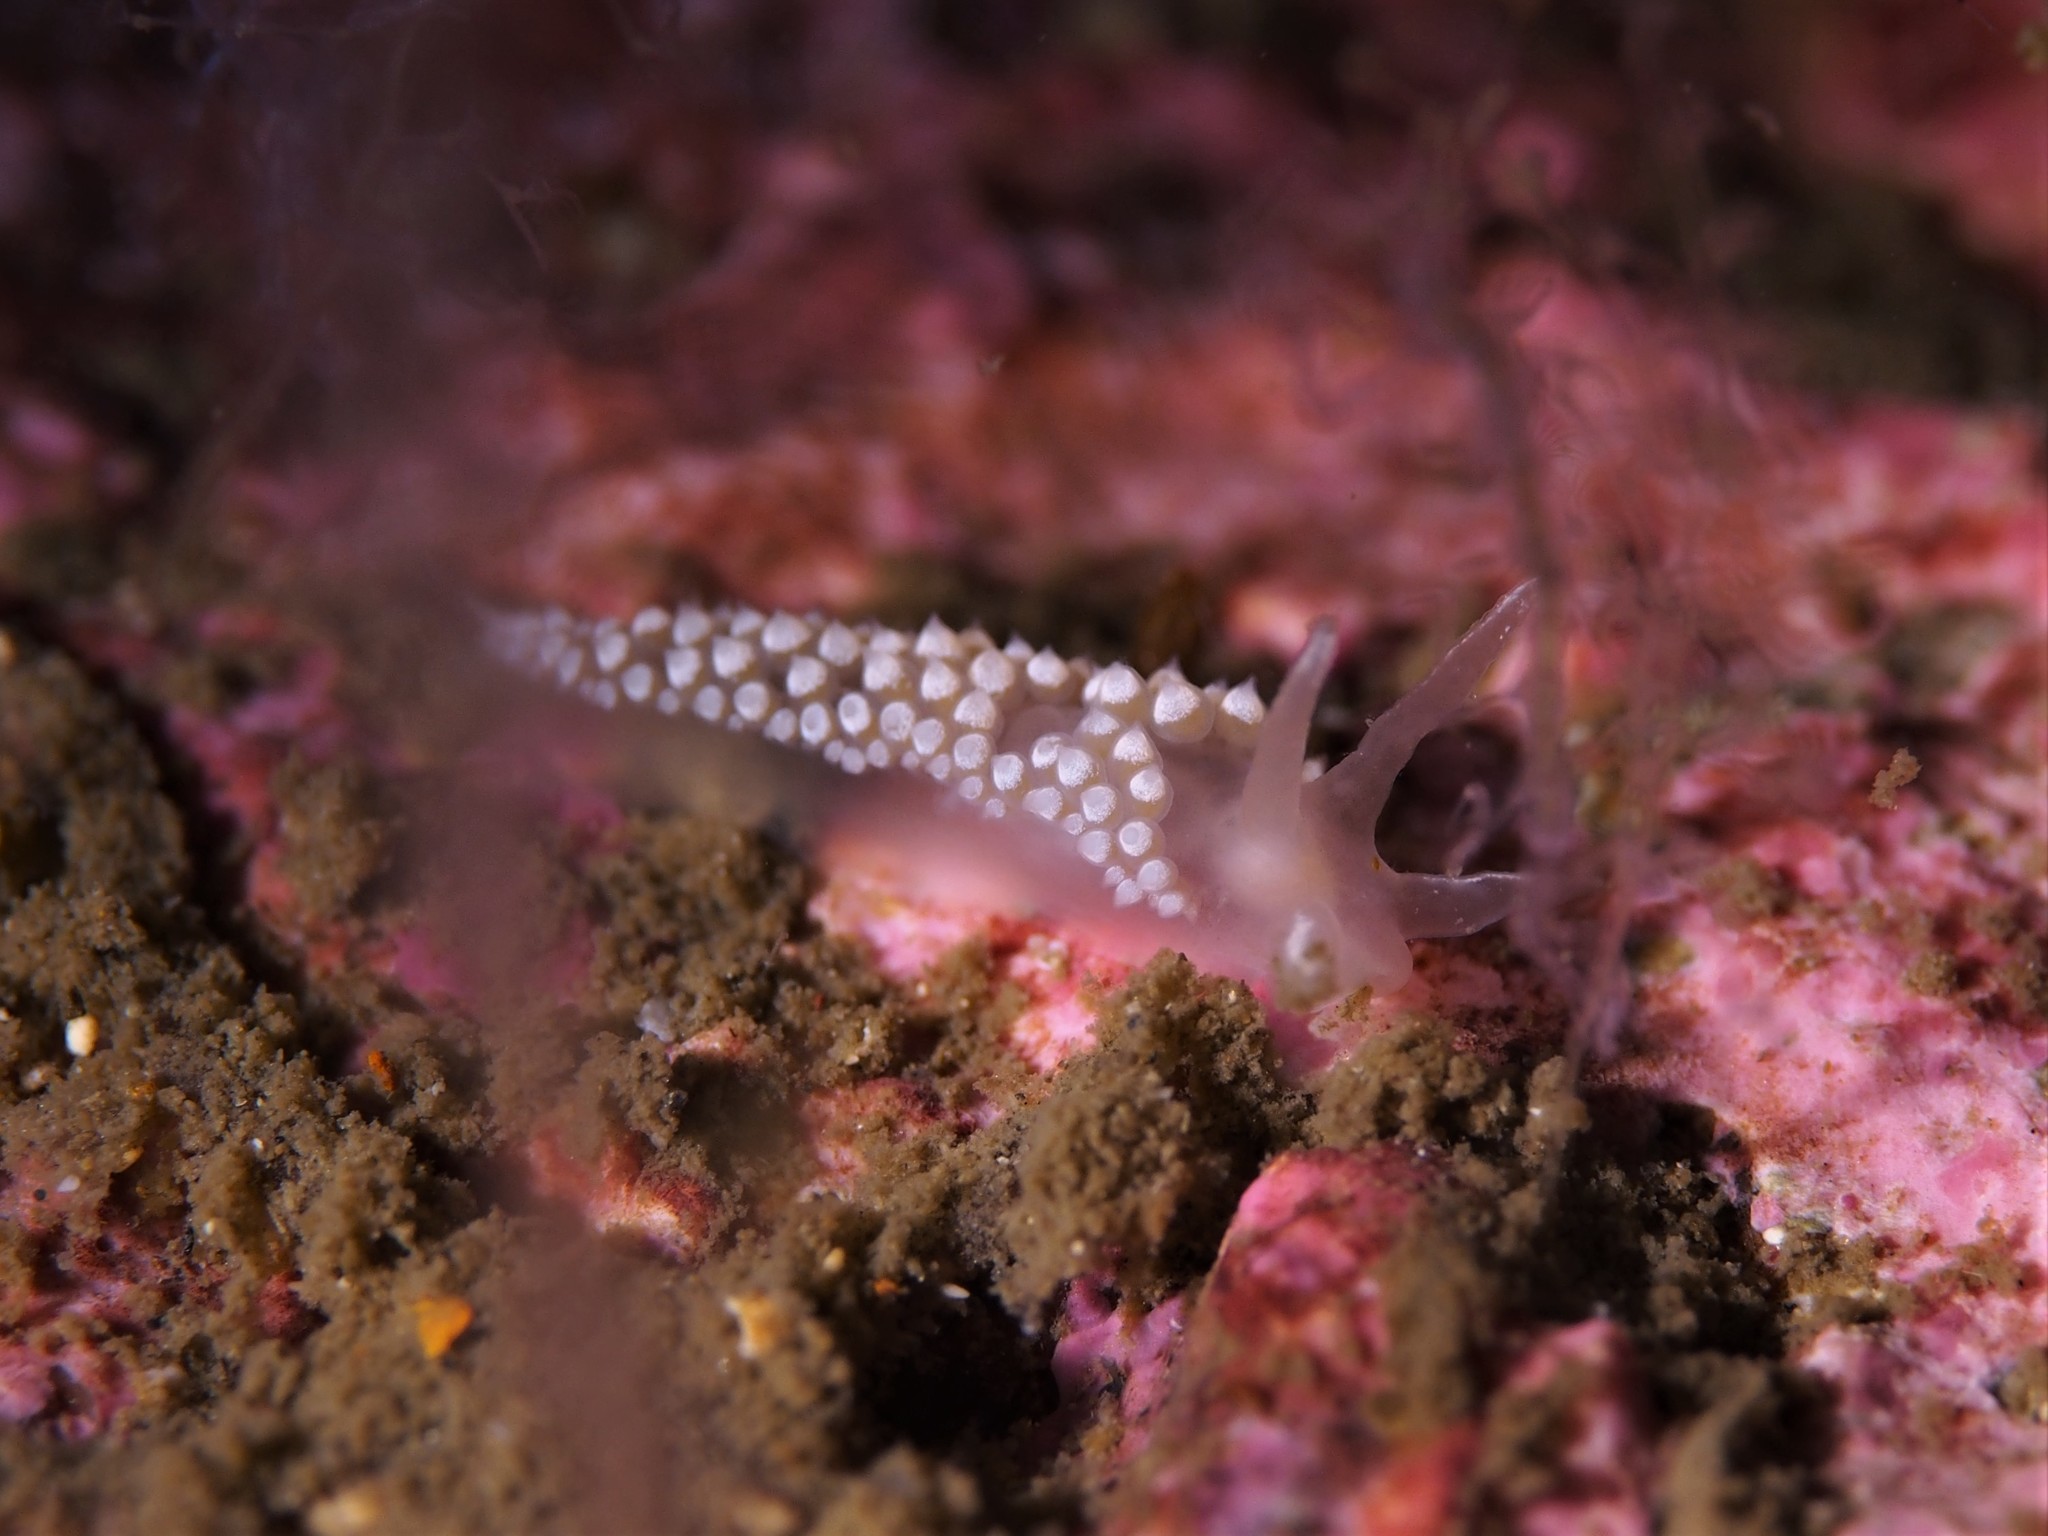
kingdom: Animalia
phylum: Mollusca
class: Gastropoda
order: Nudibranchia
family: Coryphellidae
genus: Coryphella
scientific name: Coryphella verrucosa
